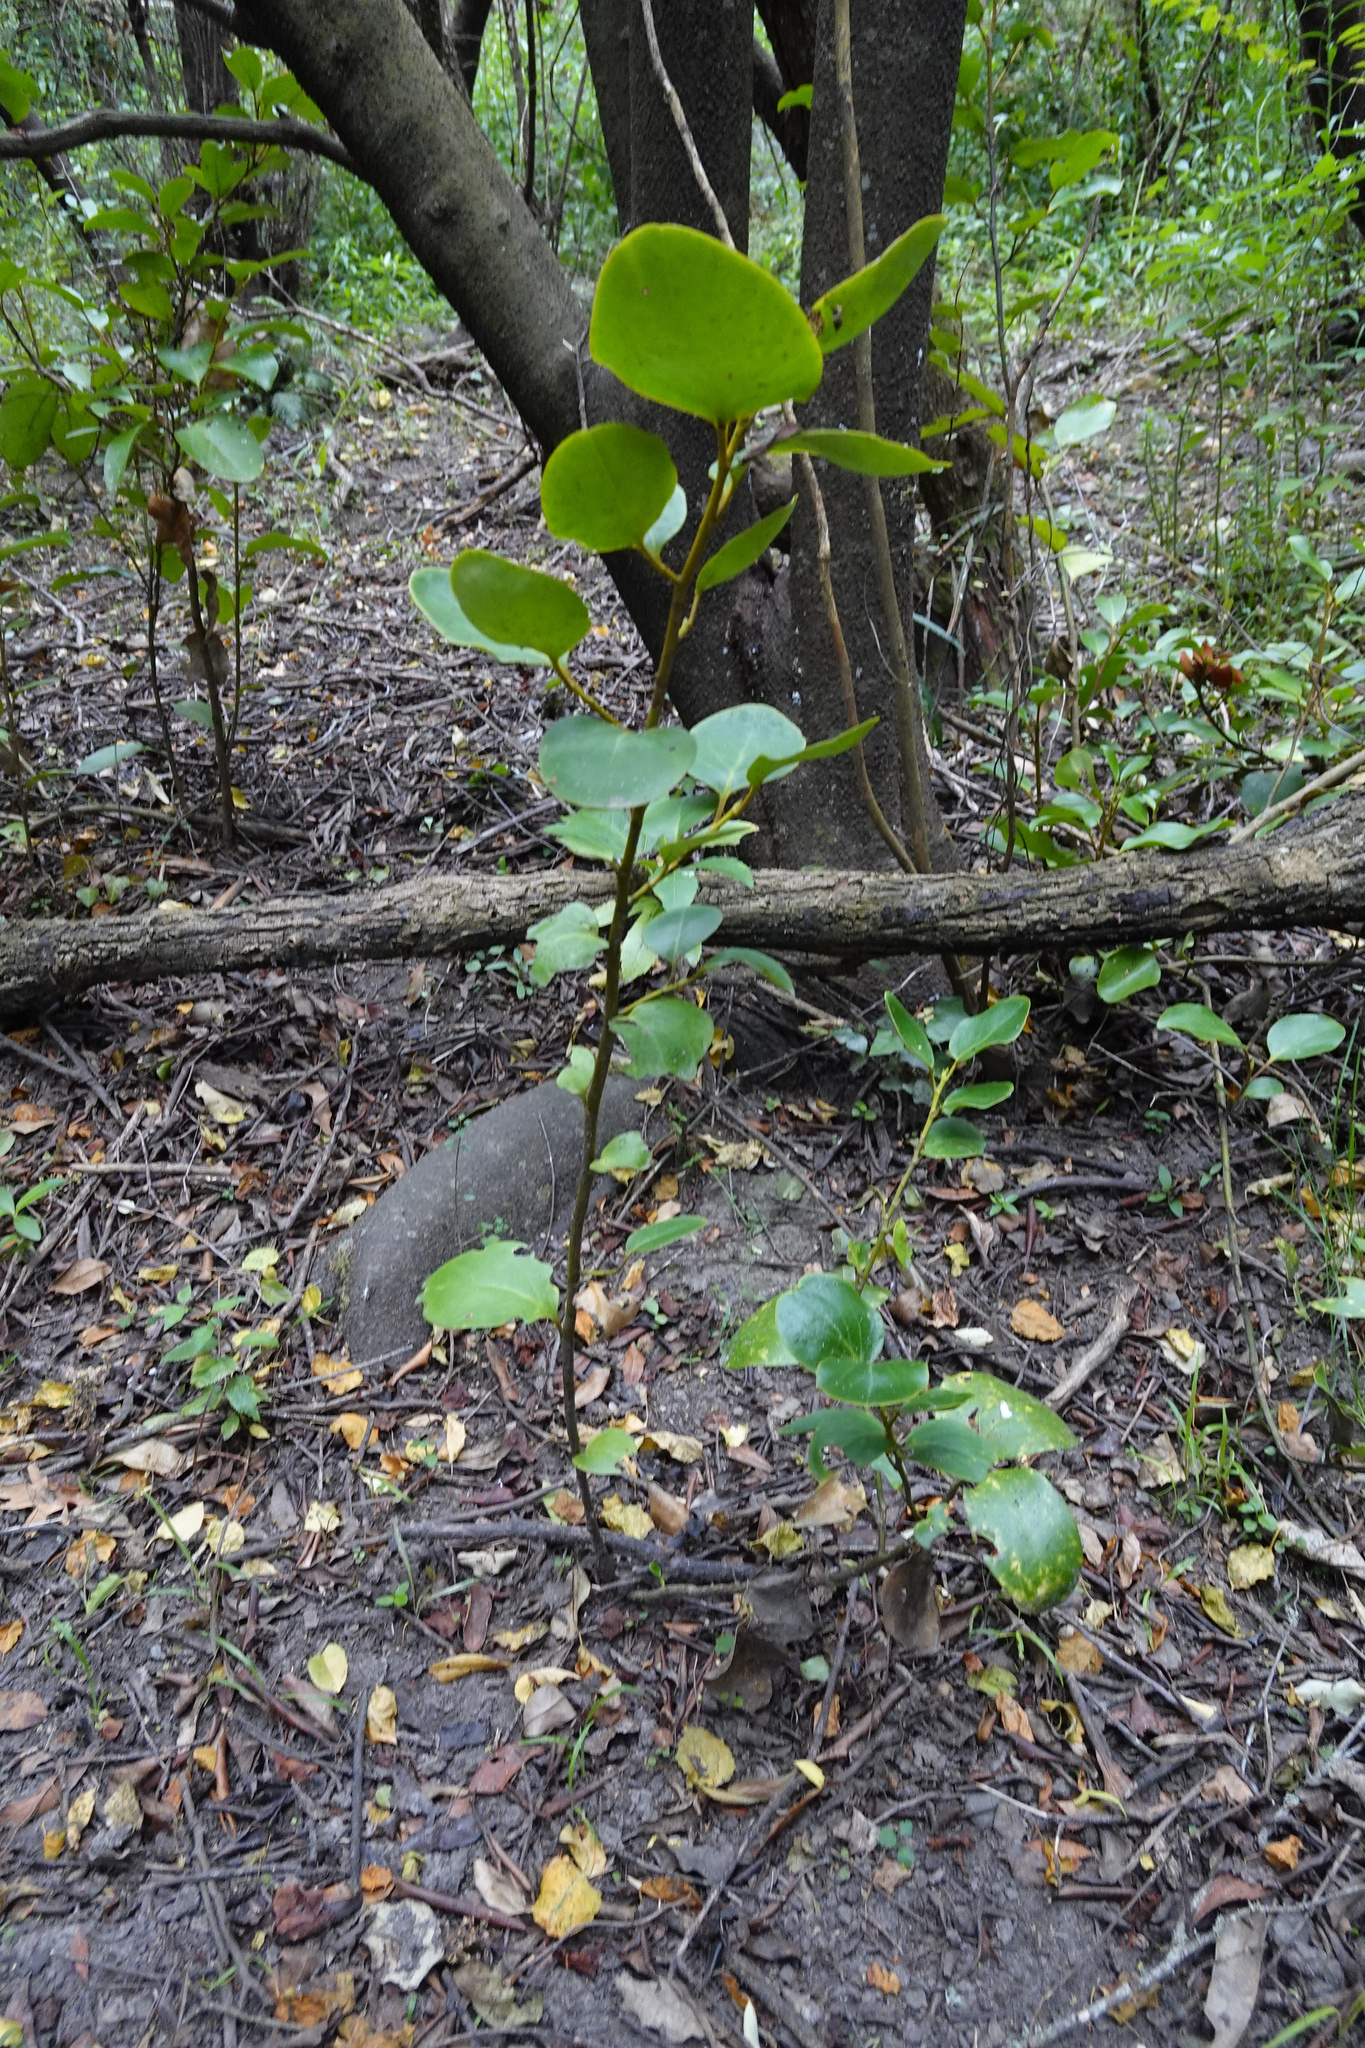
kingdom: Plantae
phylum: Tracheophyta
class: Magnoliopsida
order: Apiales
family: Griseliniaceae
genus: Griselinia
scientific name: Griselinia littoralis
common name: New zealand broadleaf
